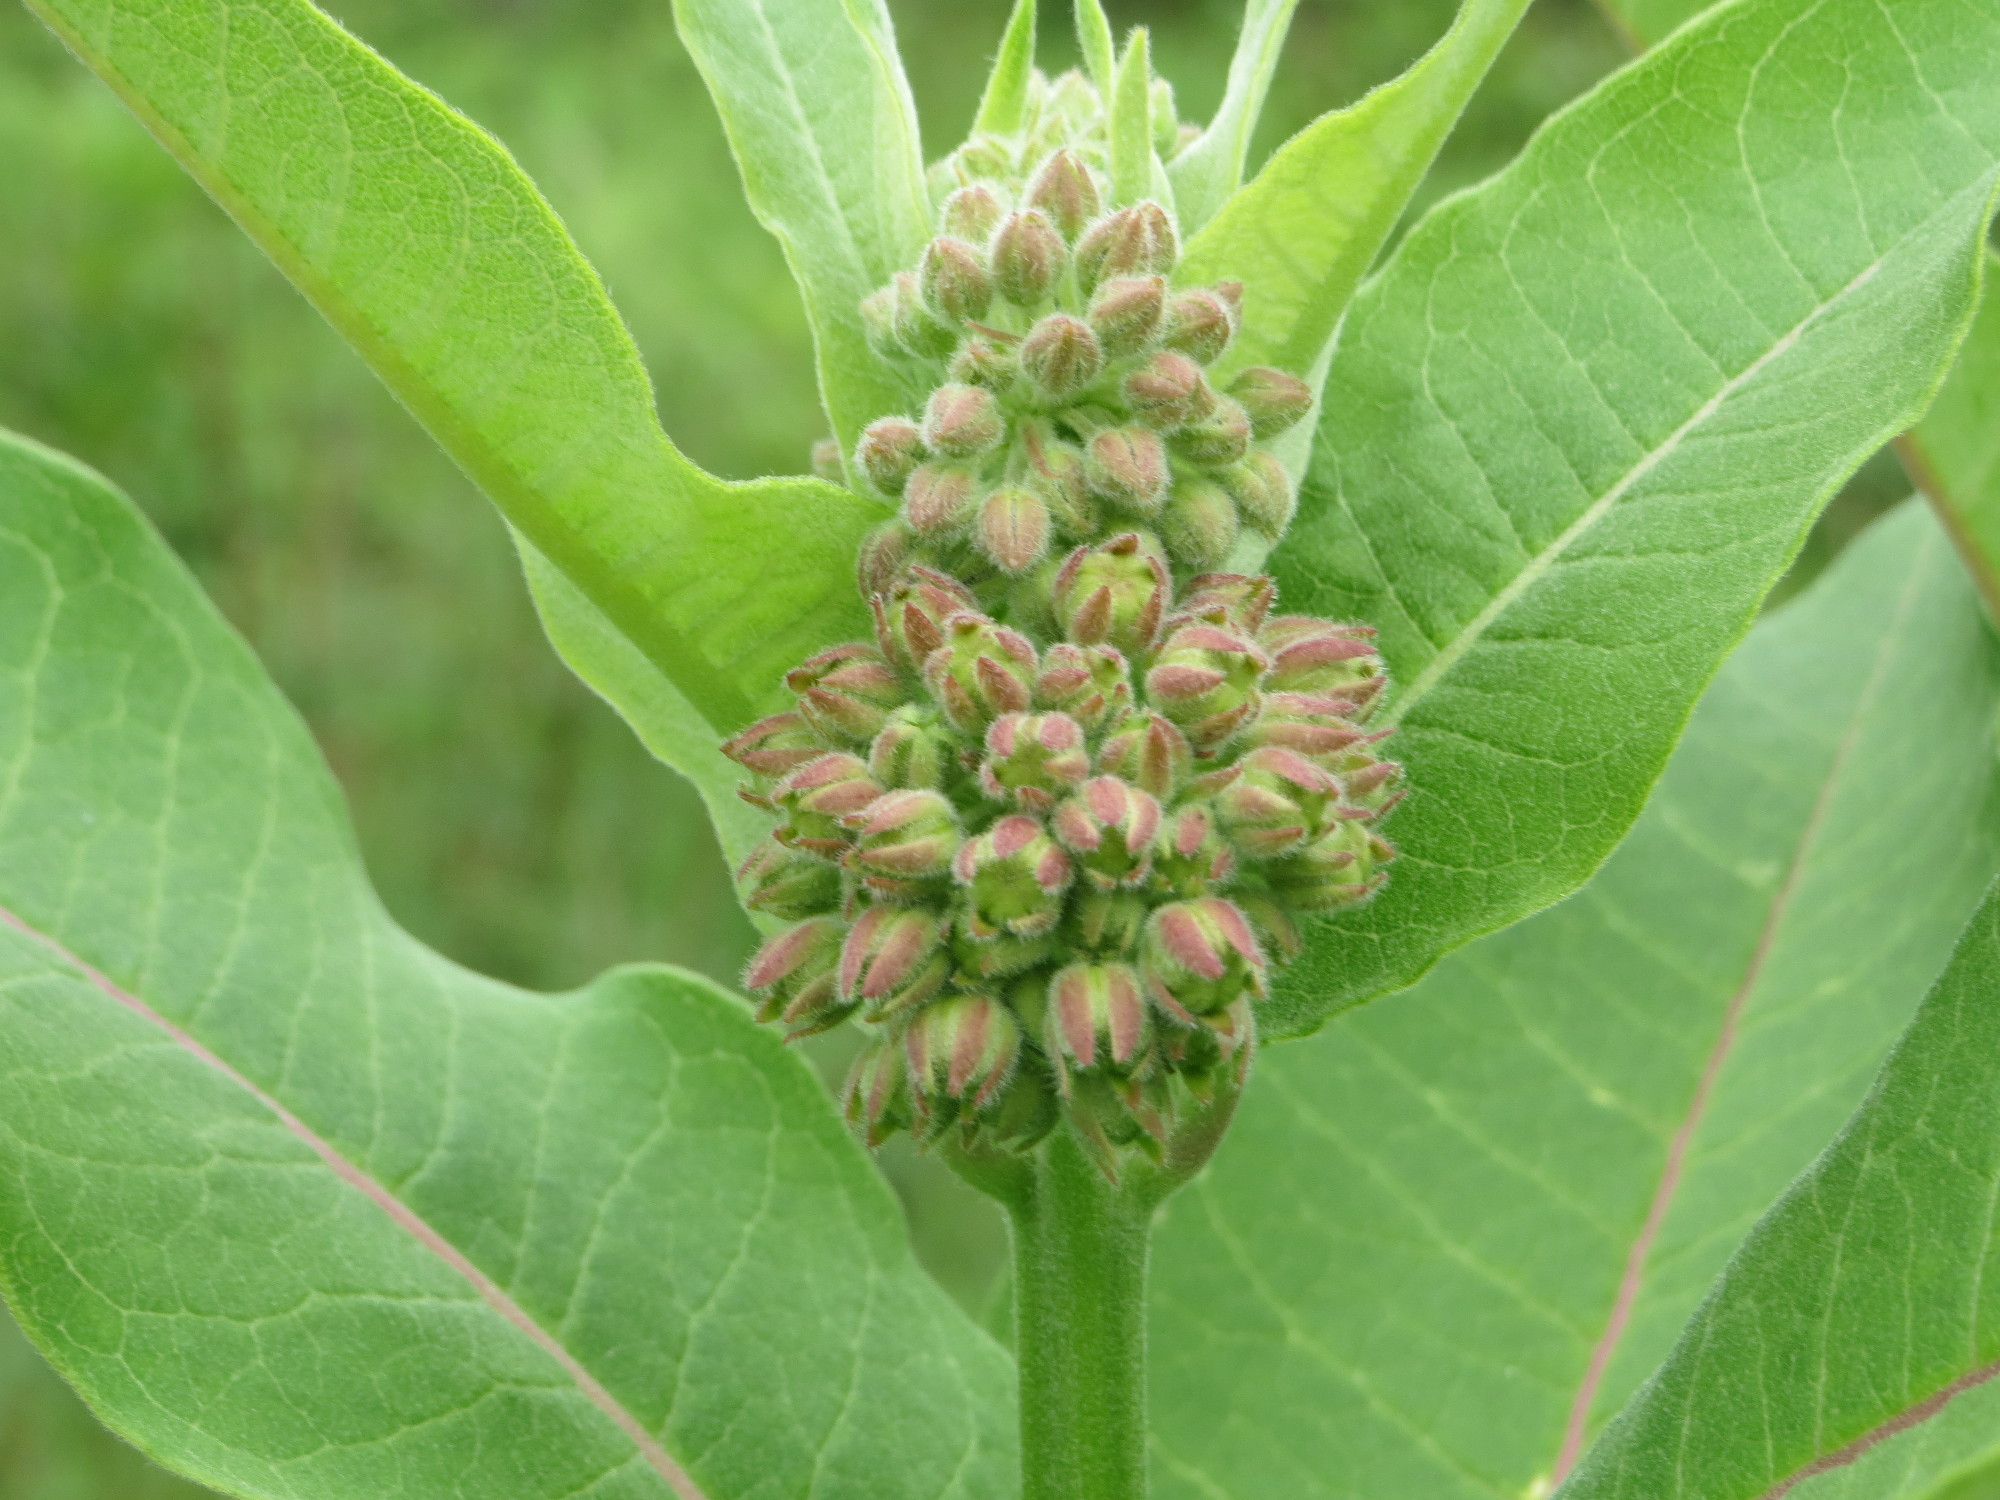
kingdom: Plantae
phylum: Tracheophyta
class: Magnoliopsida
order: Gentianales
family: Apocynaceae
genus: Asclepias
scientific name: Asclepias syriaca
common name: Common milkweed
